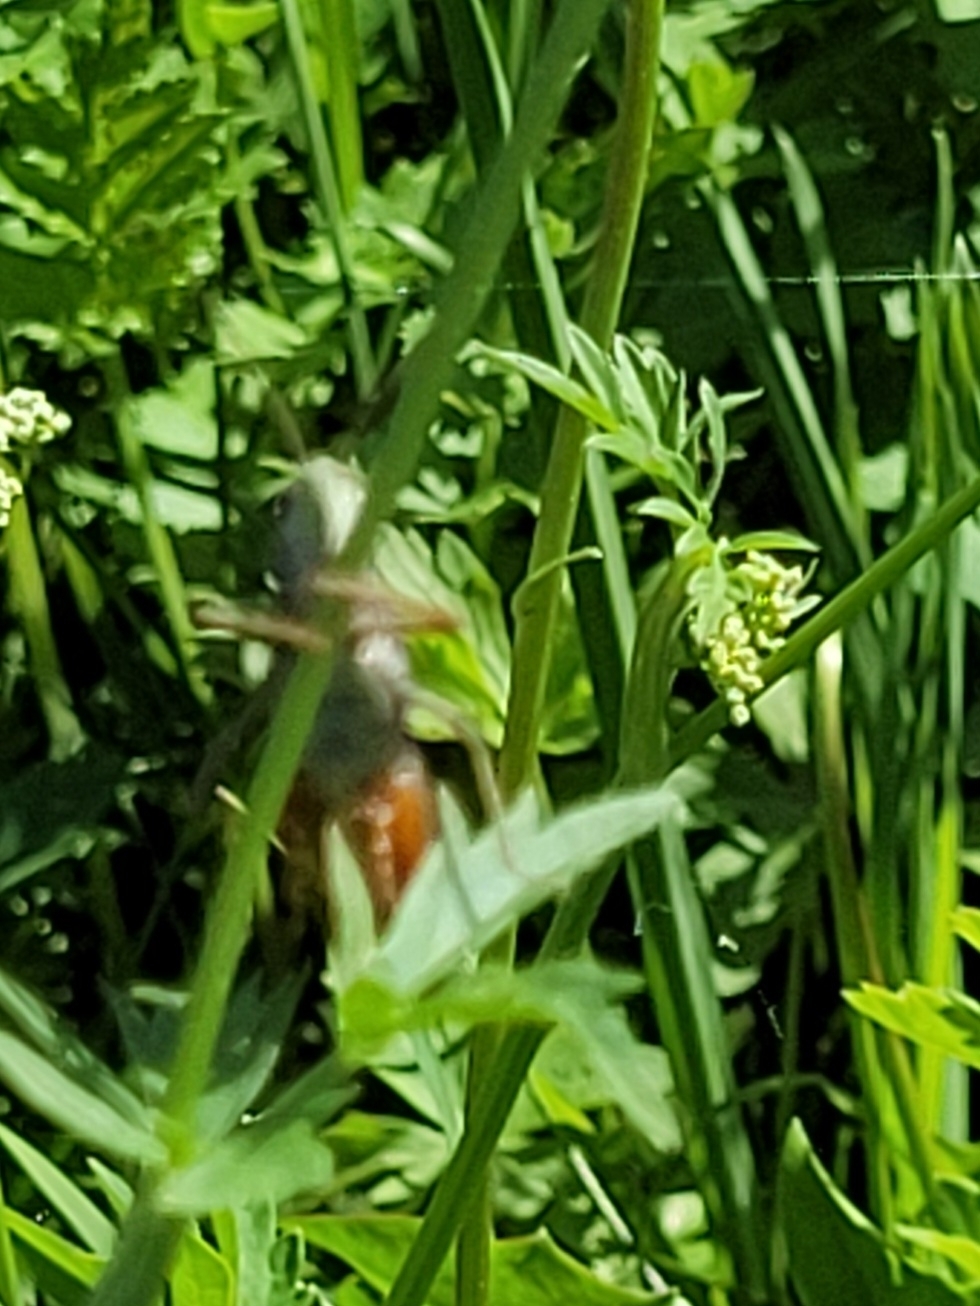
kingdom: Animalia
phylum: Arthropoda
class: Insecta
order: Orthoptera
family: Acrididae
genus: Stenobothrus
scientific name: Stenobothrus rubicundulus
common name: Wing-buzzing grasshopper
